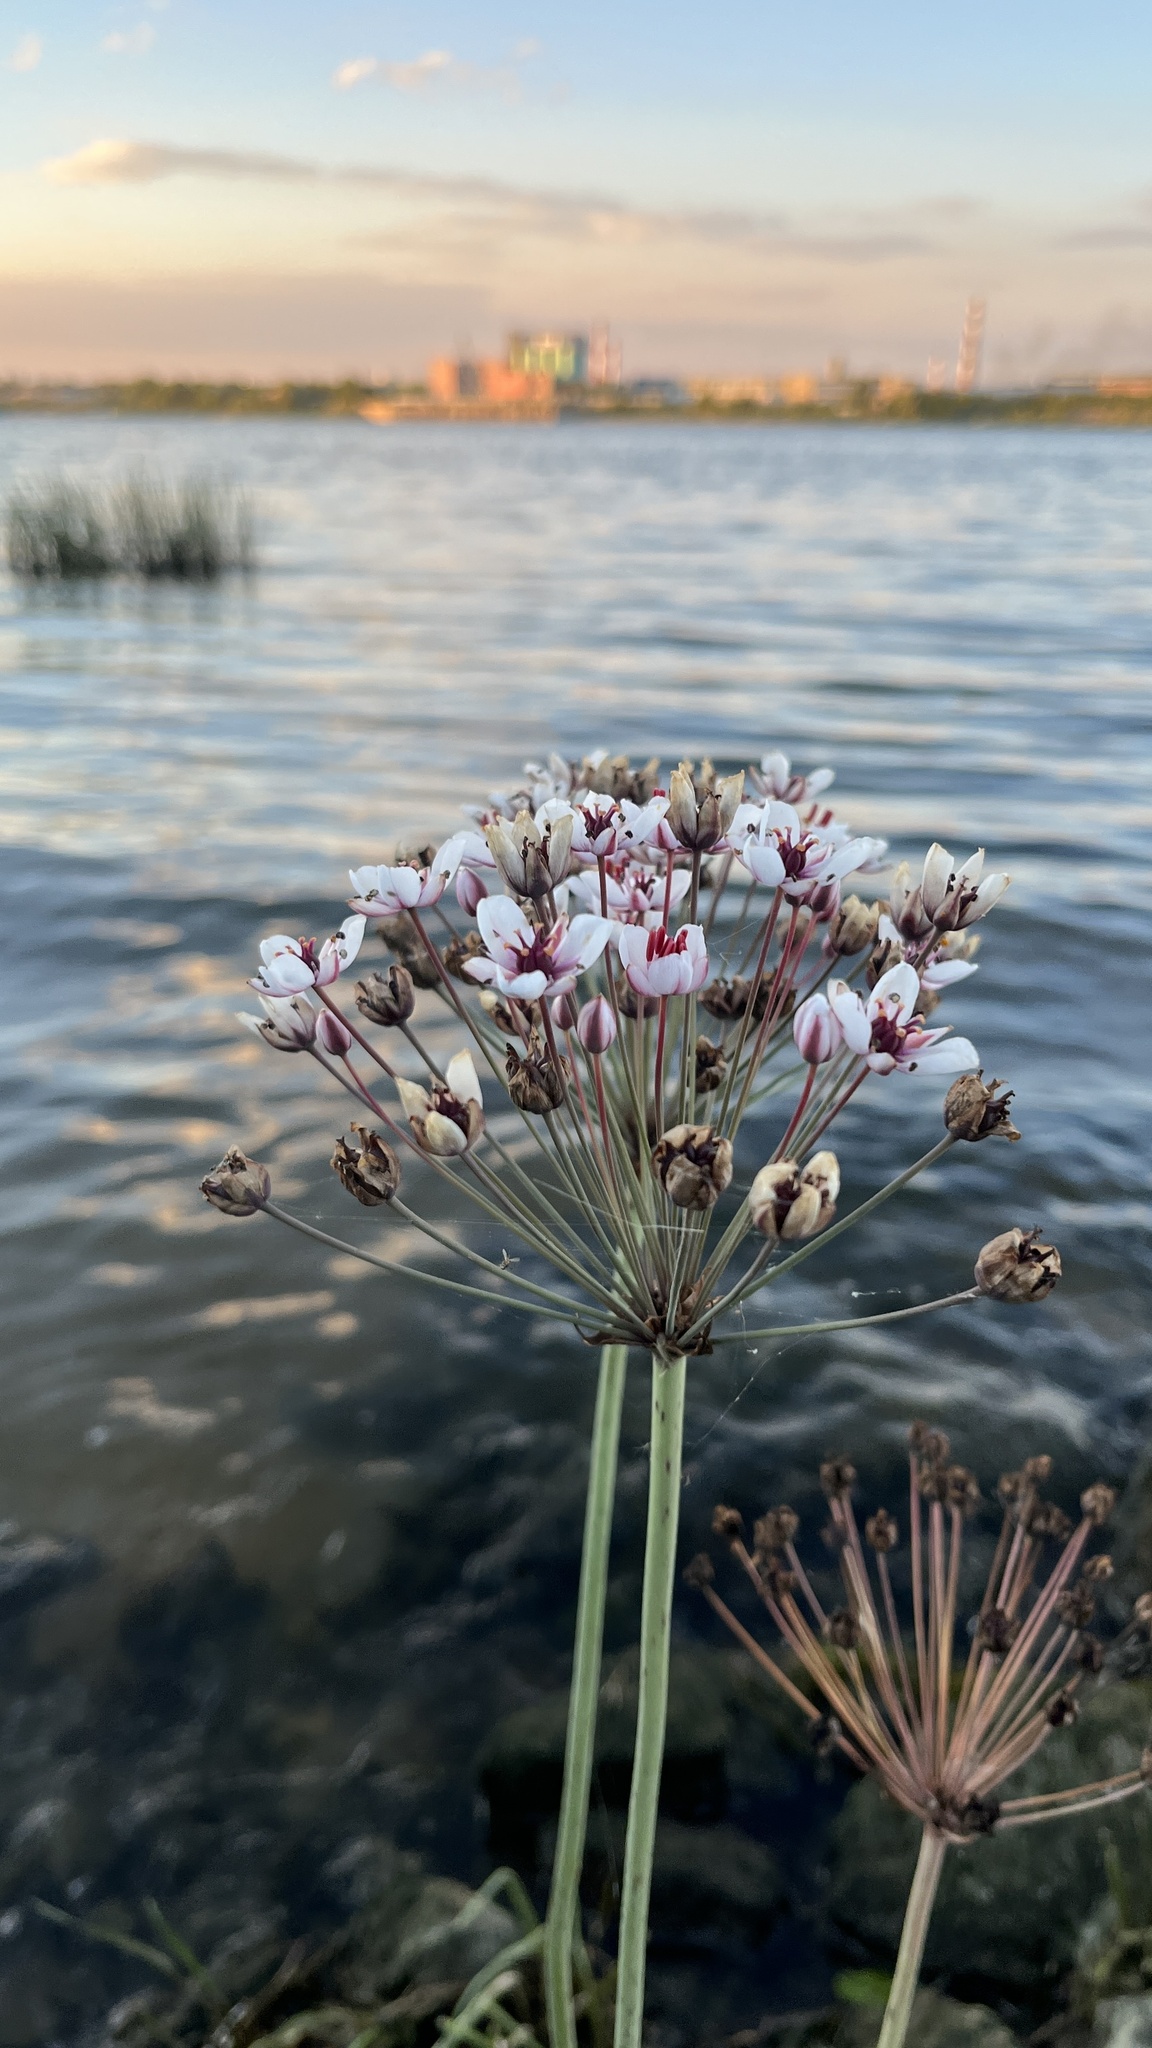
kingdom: Plantae
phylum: Tracheophyta
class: Liliopsida
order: Alismatales
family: Butomaceae
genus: Butomus
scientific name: Butomus umbellatus
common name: Flowering-rush
